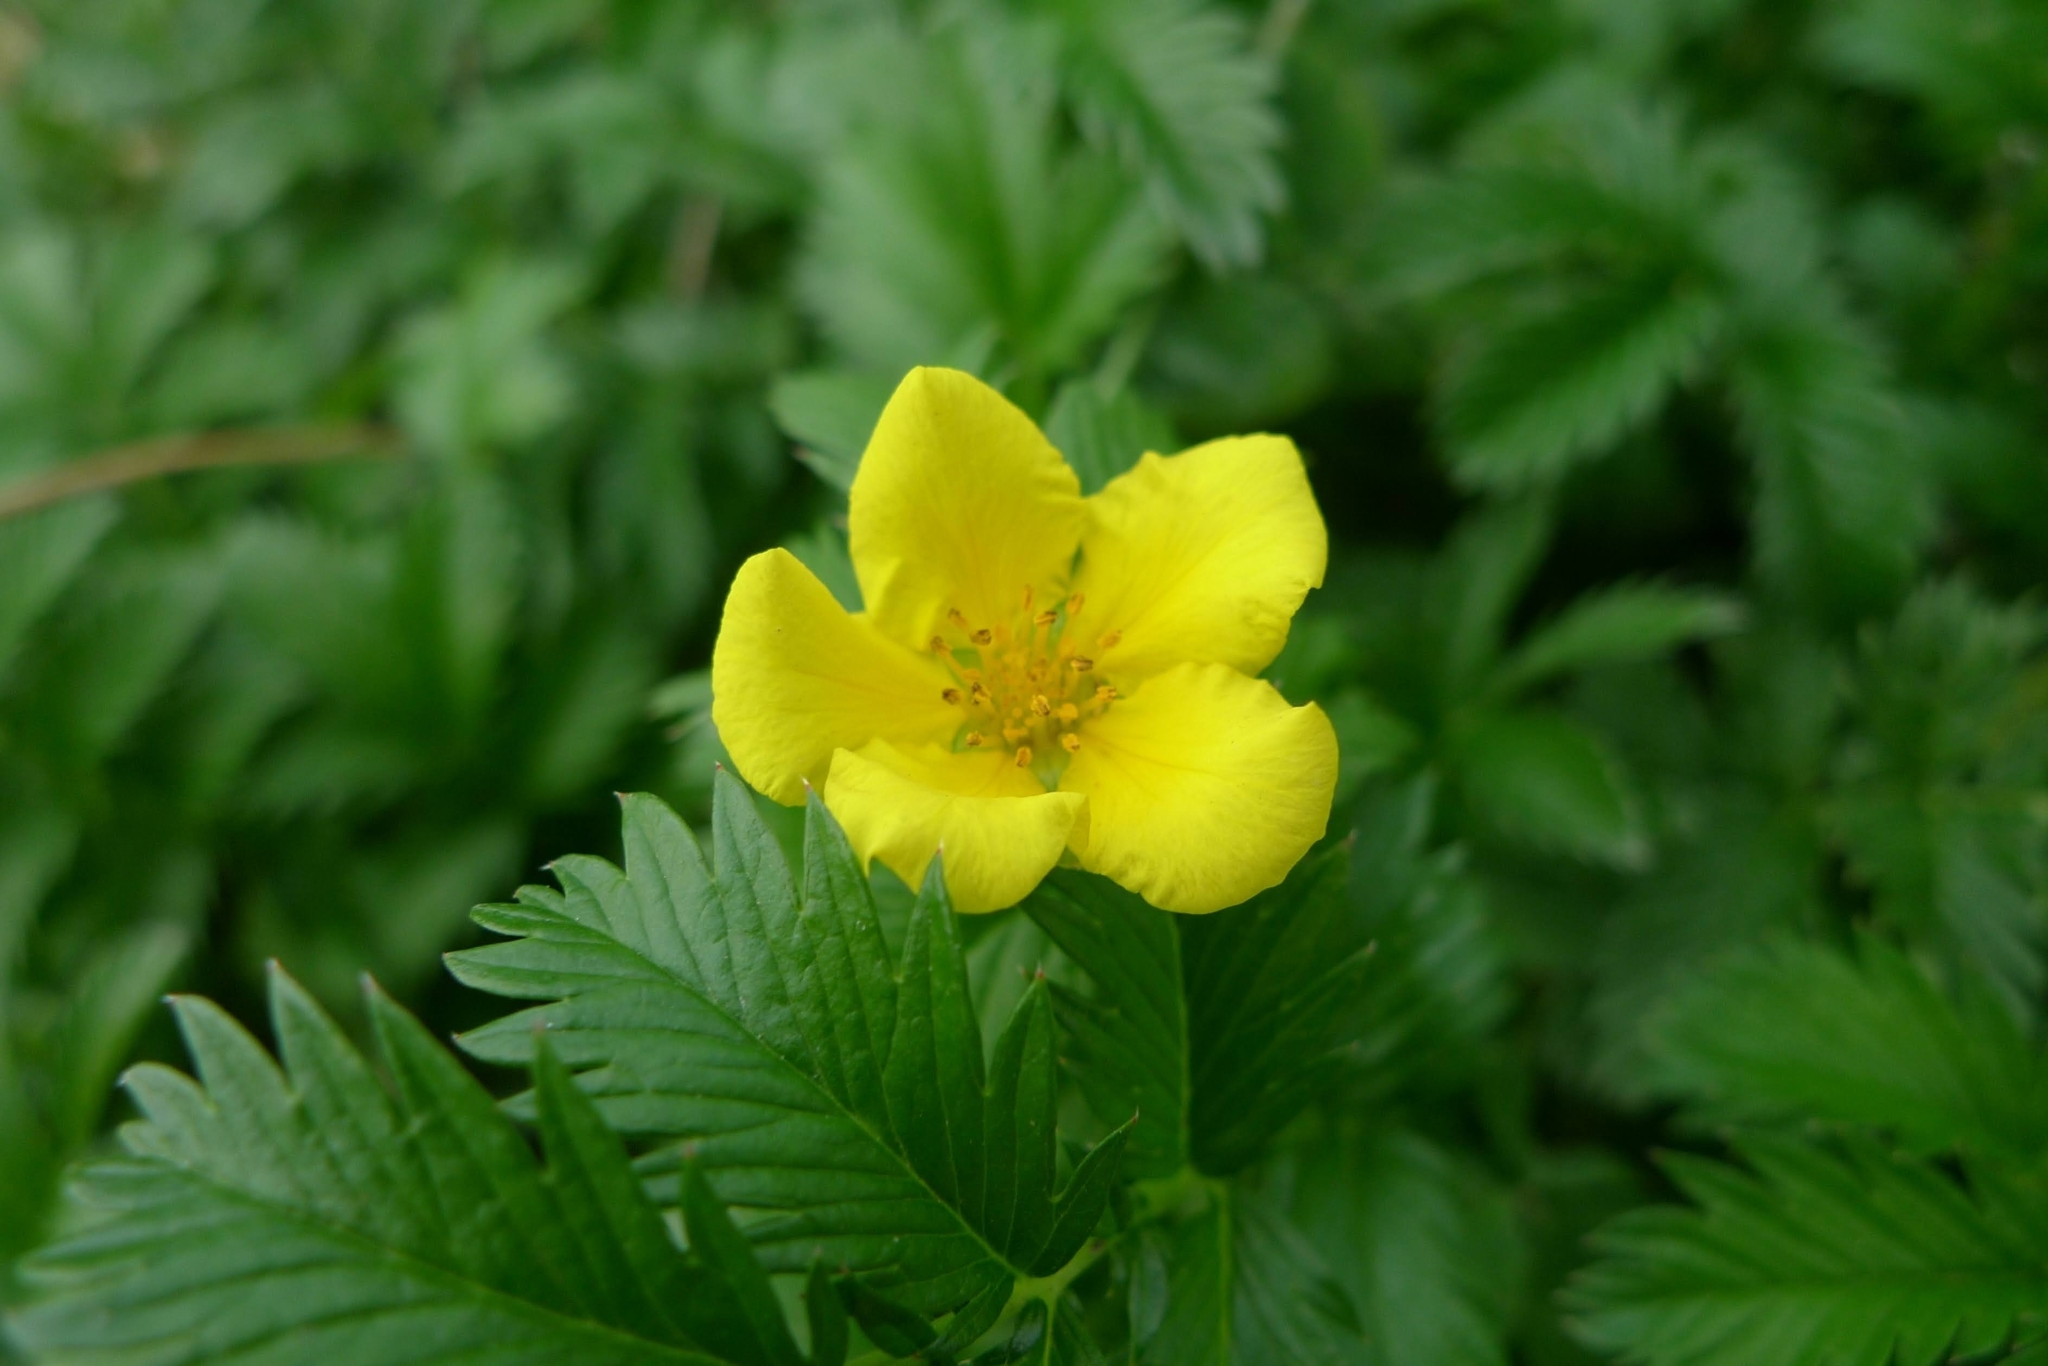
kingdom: Plantae
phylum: Tracheophyta
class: Magnoliopsida
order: Rosales
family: Rosaceae
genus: Argentina
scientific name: Argentina anserina
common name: Common silverweed
